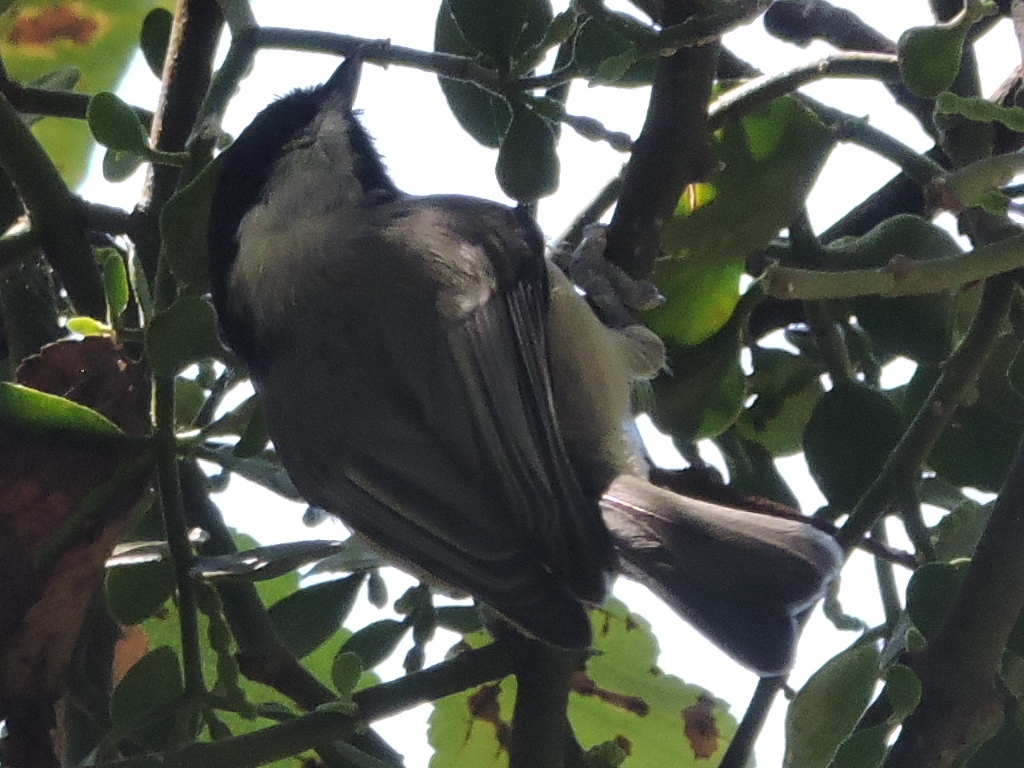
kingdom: Animalia
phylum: Chordata
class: Aves
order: Passeriformes
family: Paridae
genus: Poecile
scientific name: Poecile carolinensis
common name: Carolina chickadee
